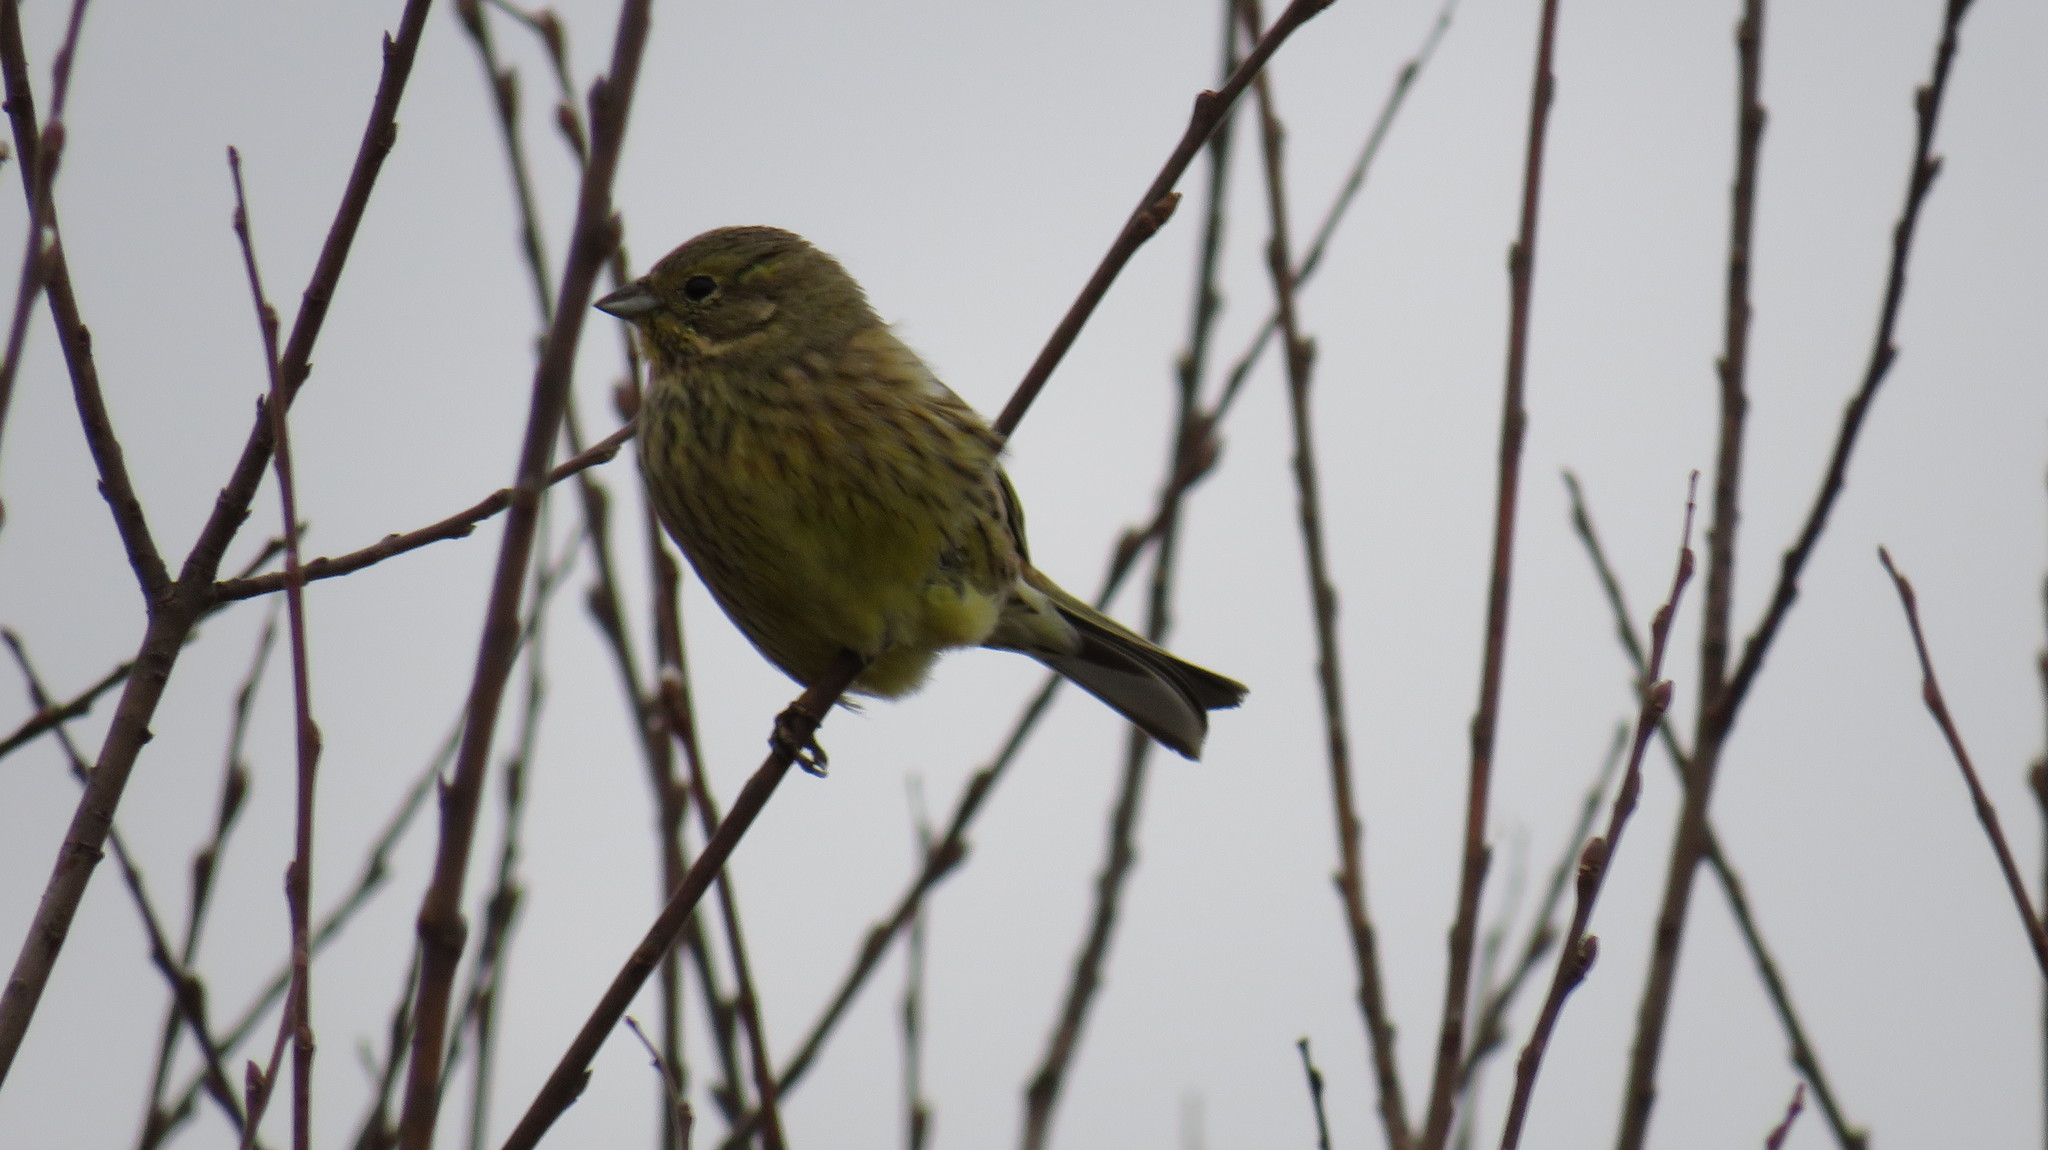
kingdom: Animalia
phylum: Chordata
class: Aves
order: Passeriformes
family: Emberizidae
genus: Emberiza
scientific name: Emberiza citrinella
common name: Yellowhammer
